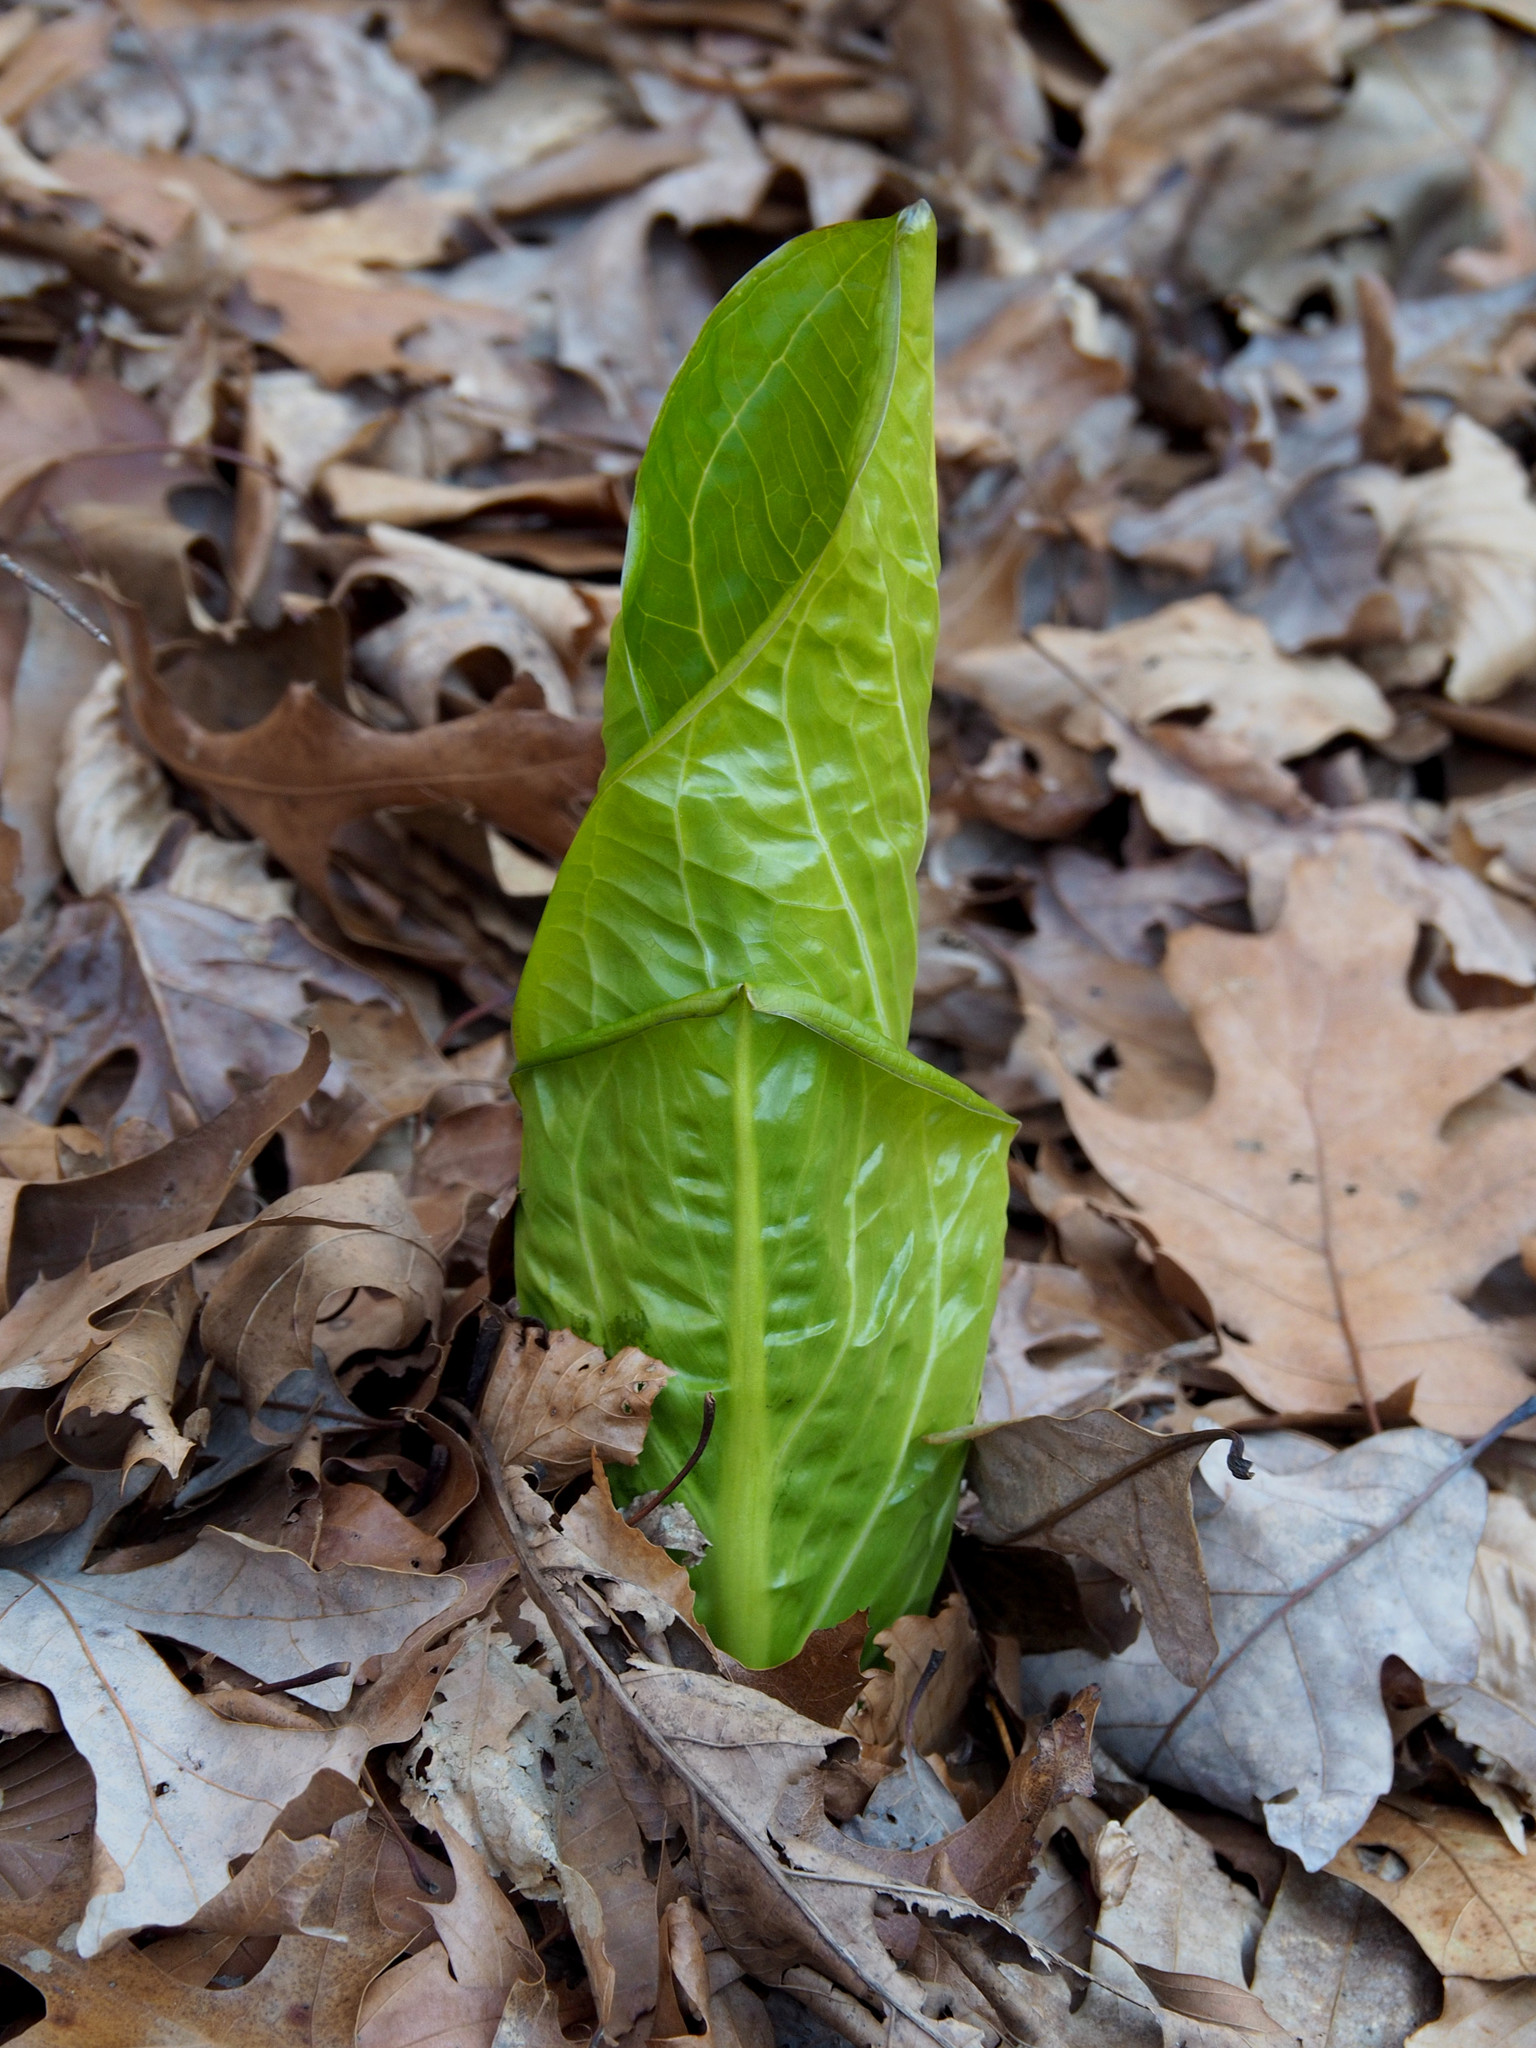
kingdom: Plantae
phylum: Tracheophyta
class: Liliopsida
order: Alismatales
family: Araceae
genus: Symplocarpus
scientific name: Symplocarpus foetidus
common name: Eastern skunk cabbage
